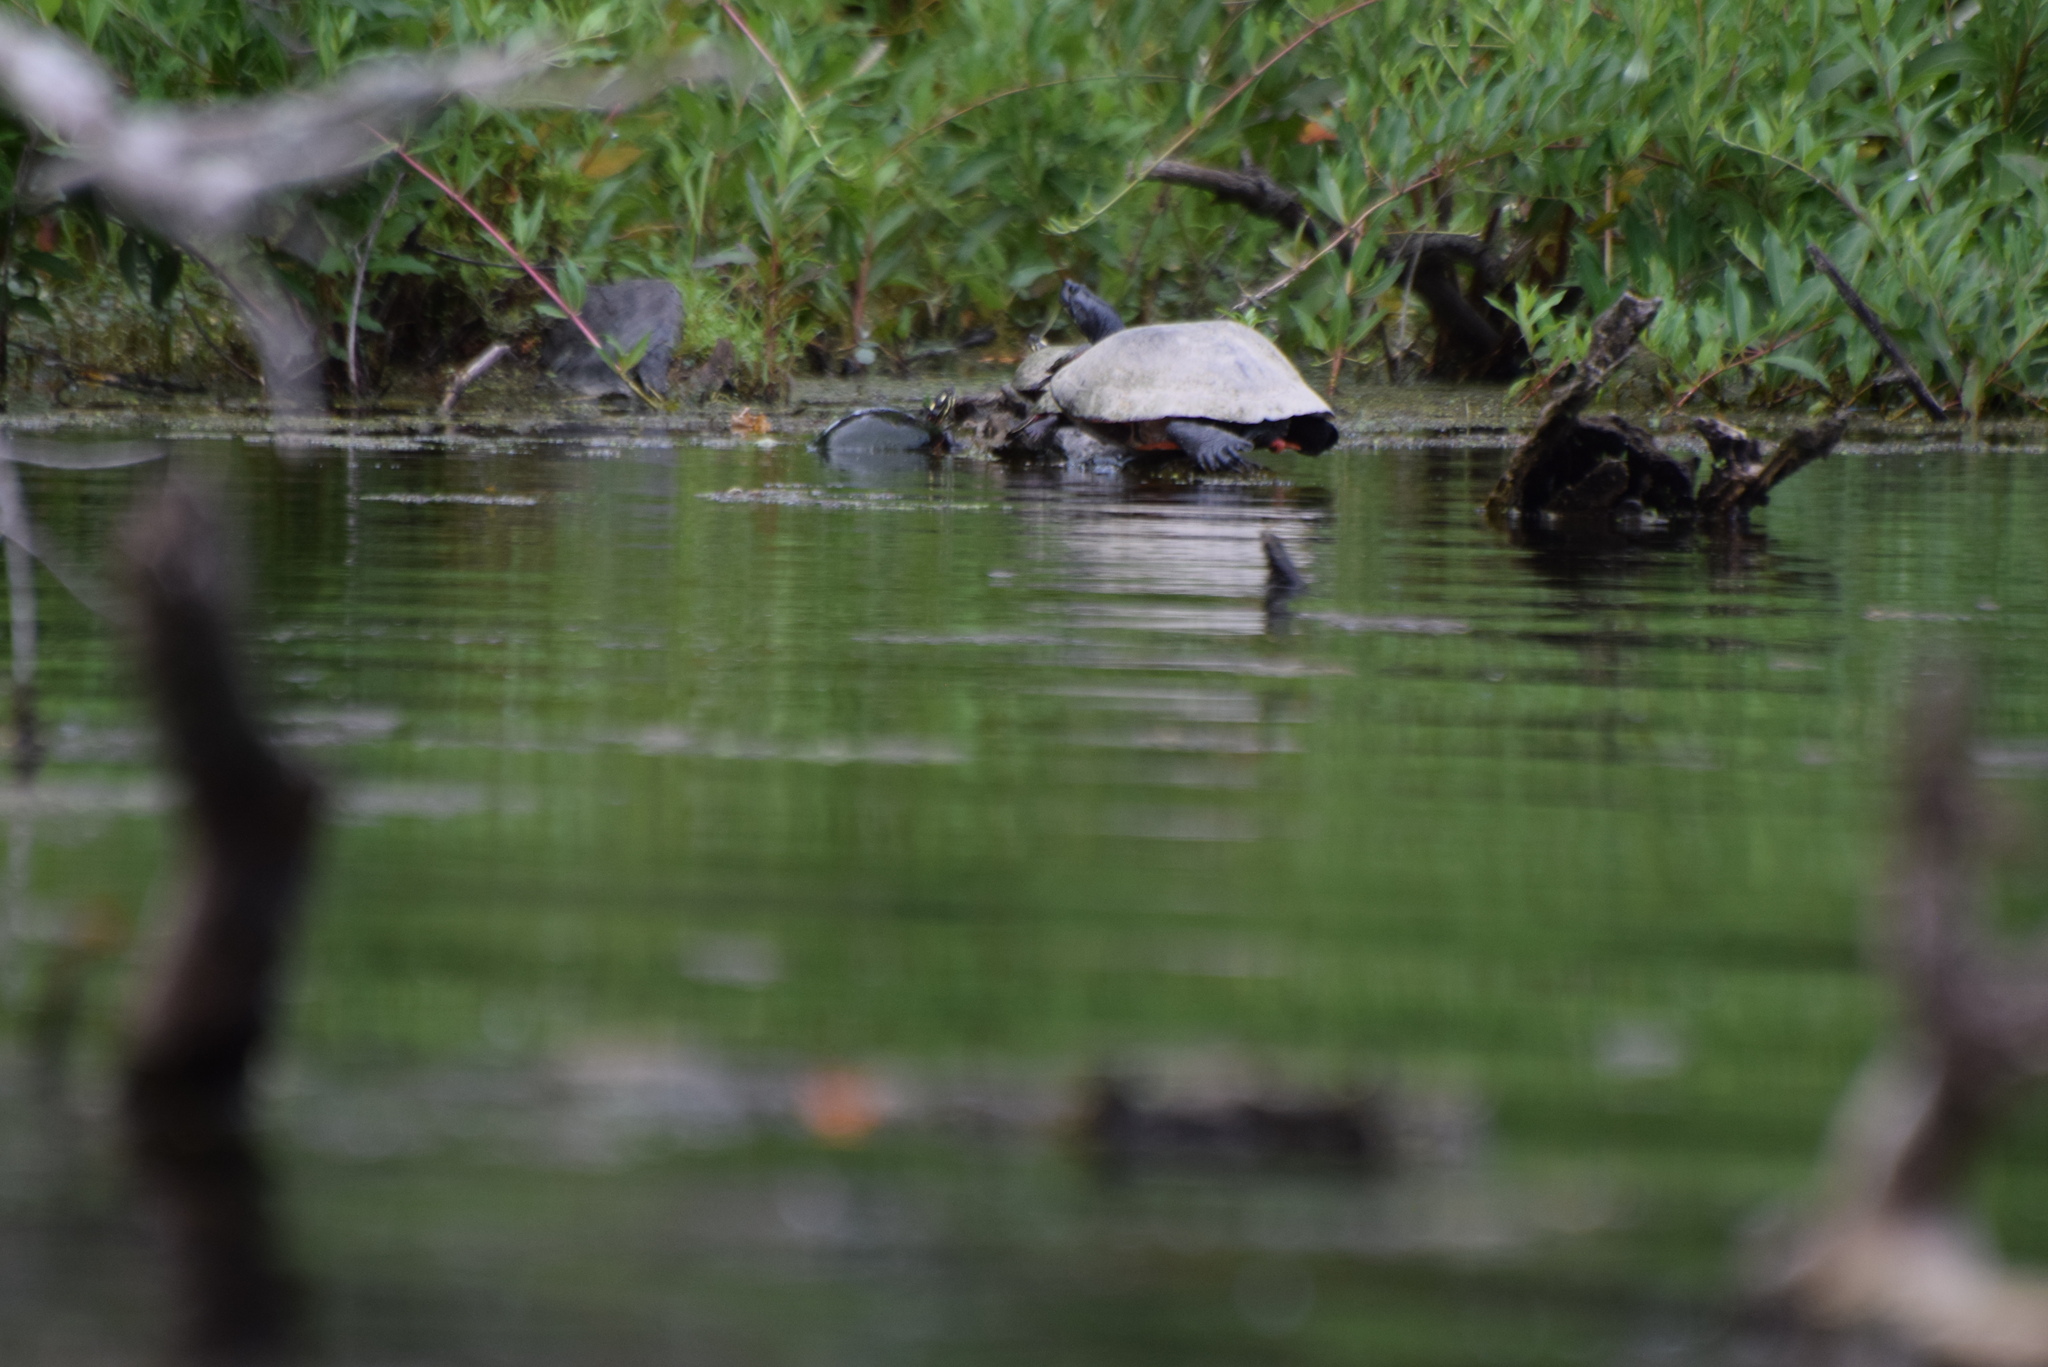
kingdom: Animalia
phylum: Chordata
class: Testudines
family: Emydidae
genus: Chrysemys
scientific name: Chrysemys picta
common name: Painted turtle
